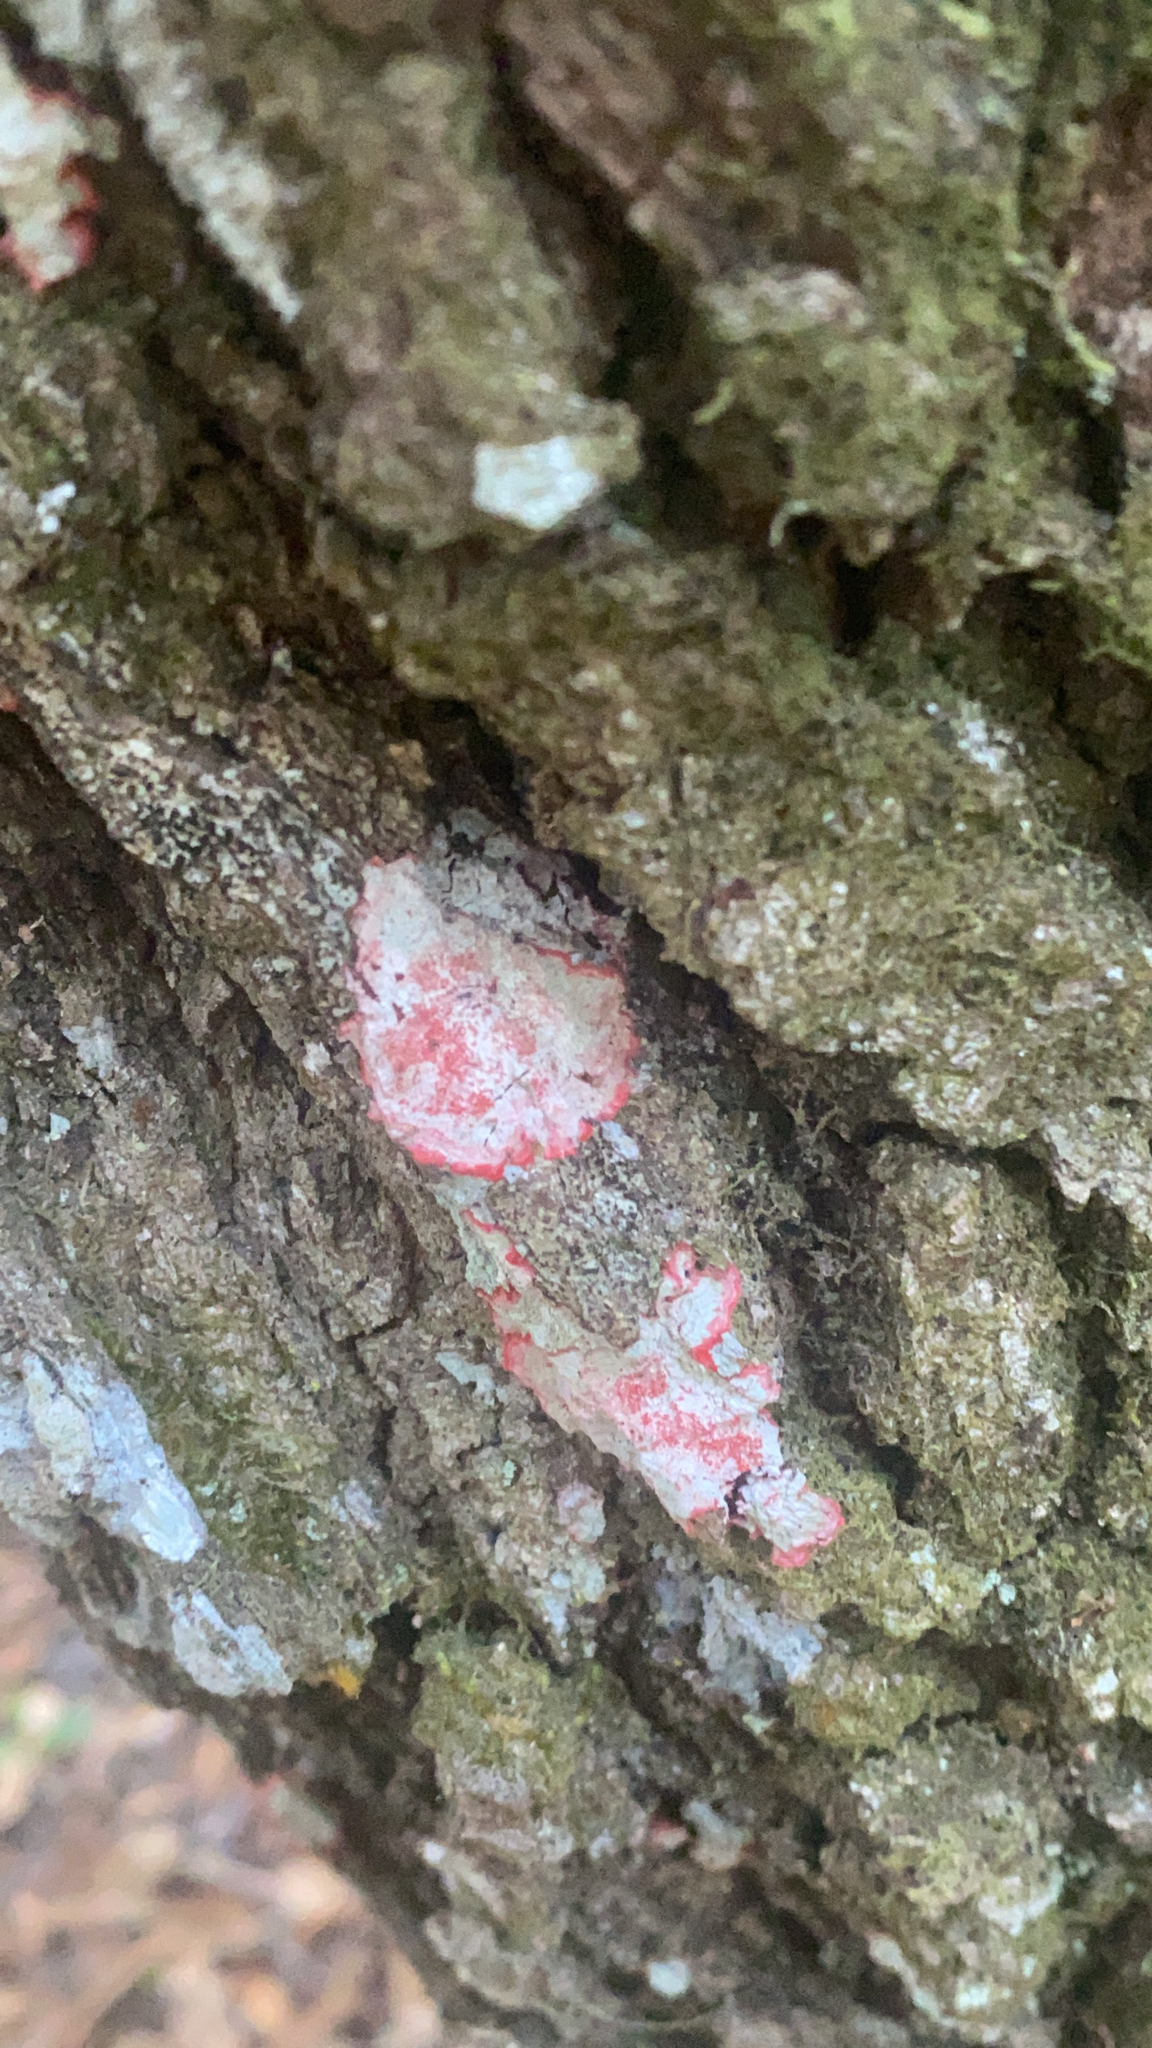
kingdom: Fungi
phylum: Ascomycota
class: Arthoniomycetes
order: Arthoniales
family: Arthoniaceae
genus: Herpothallon
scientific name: Herpothallon rubrocinctum
